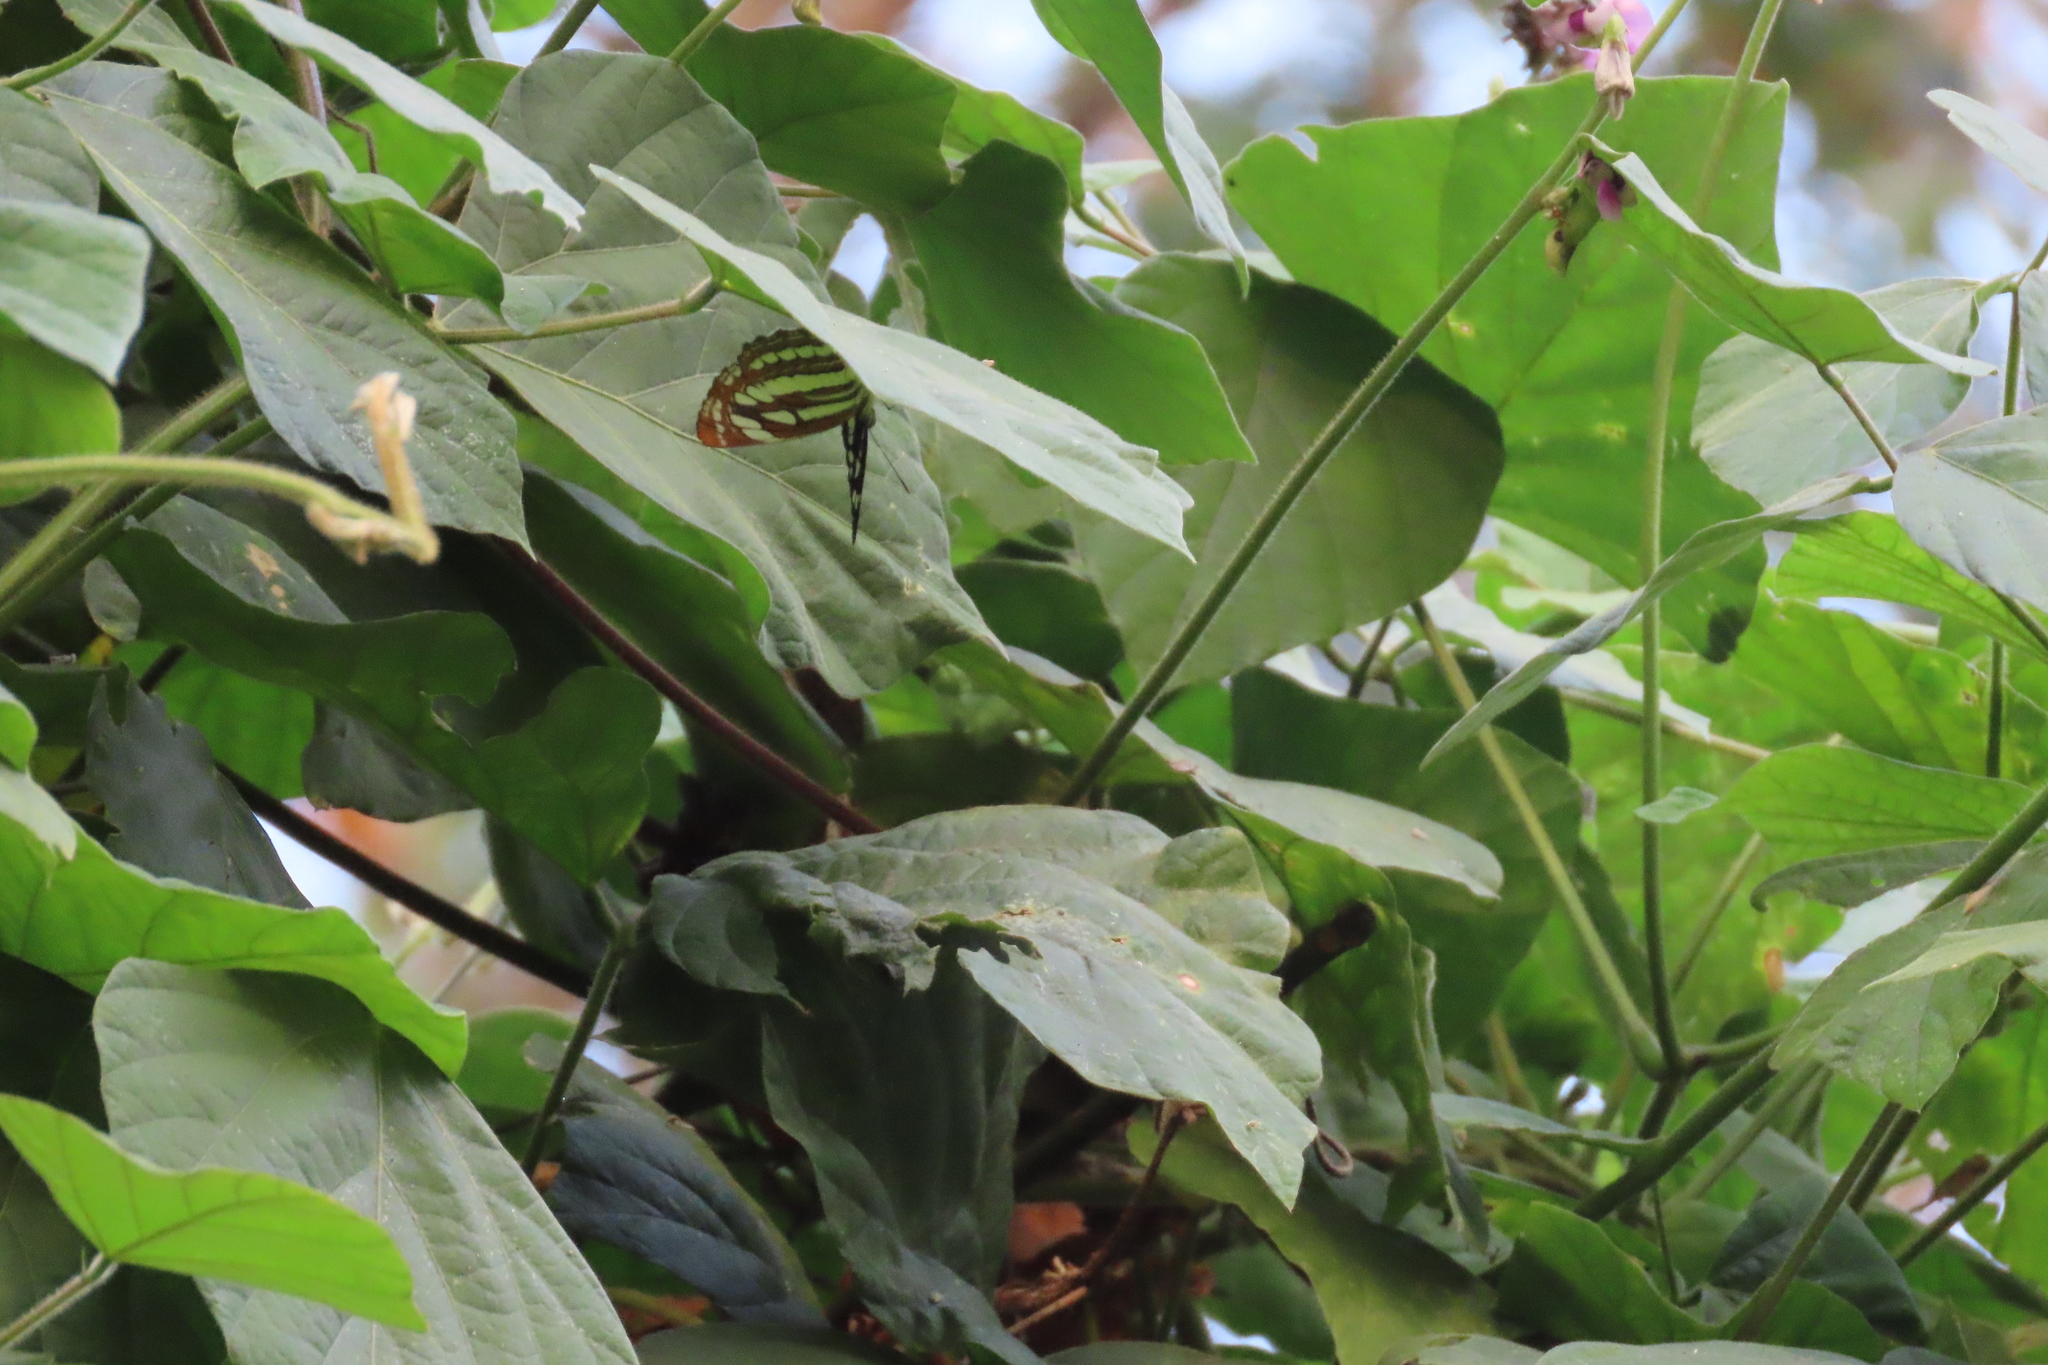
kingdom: Animalia
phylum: Arthropoda
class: Insecta
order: Lepidoptera
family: Nymphalidae
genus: Neptis
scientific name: Neptis hylas
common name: Common sailer
